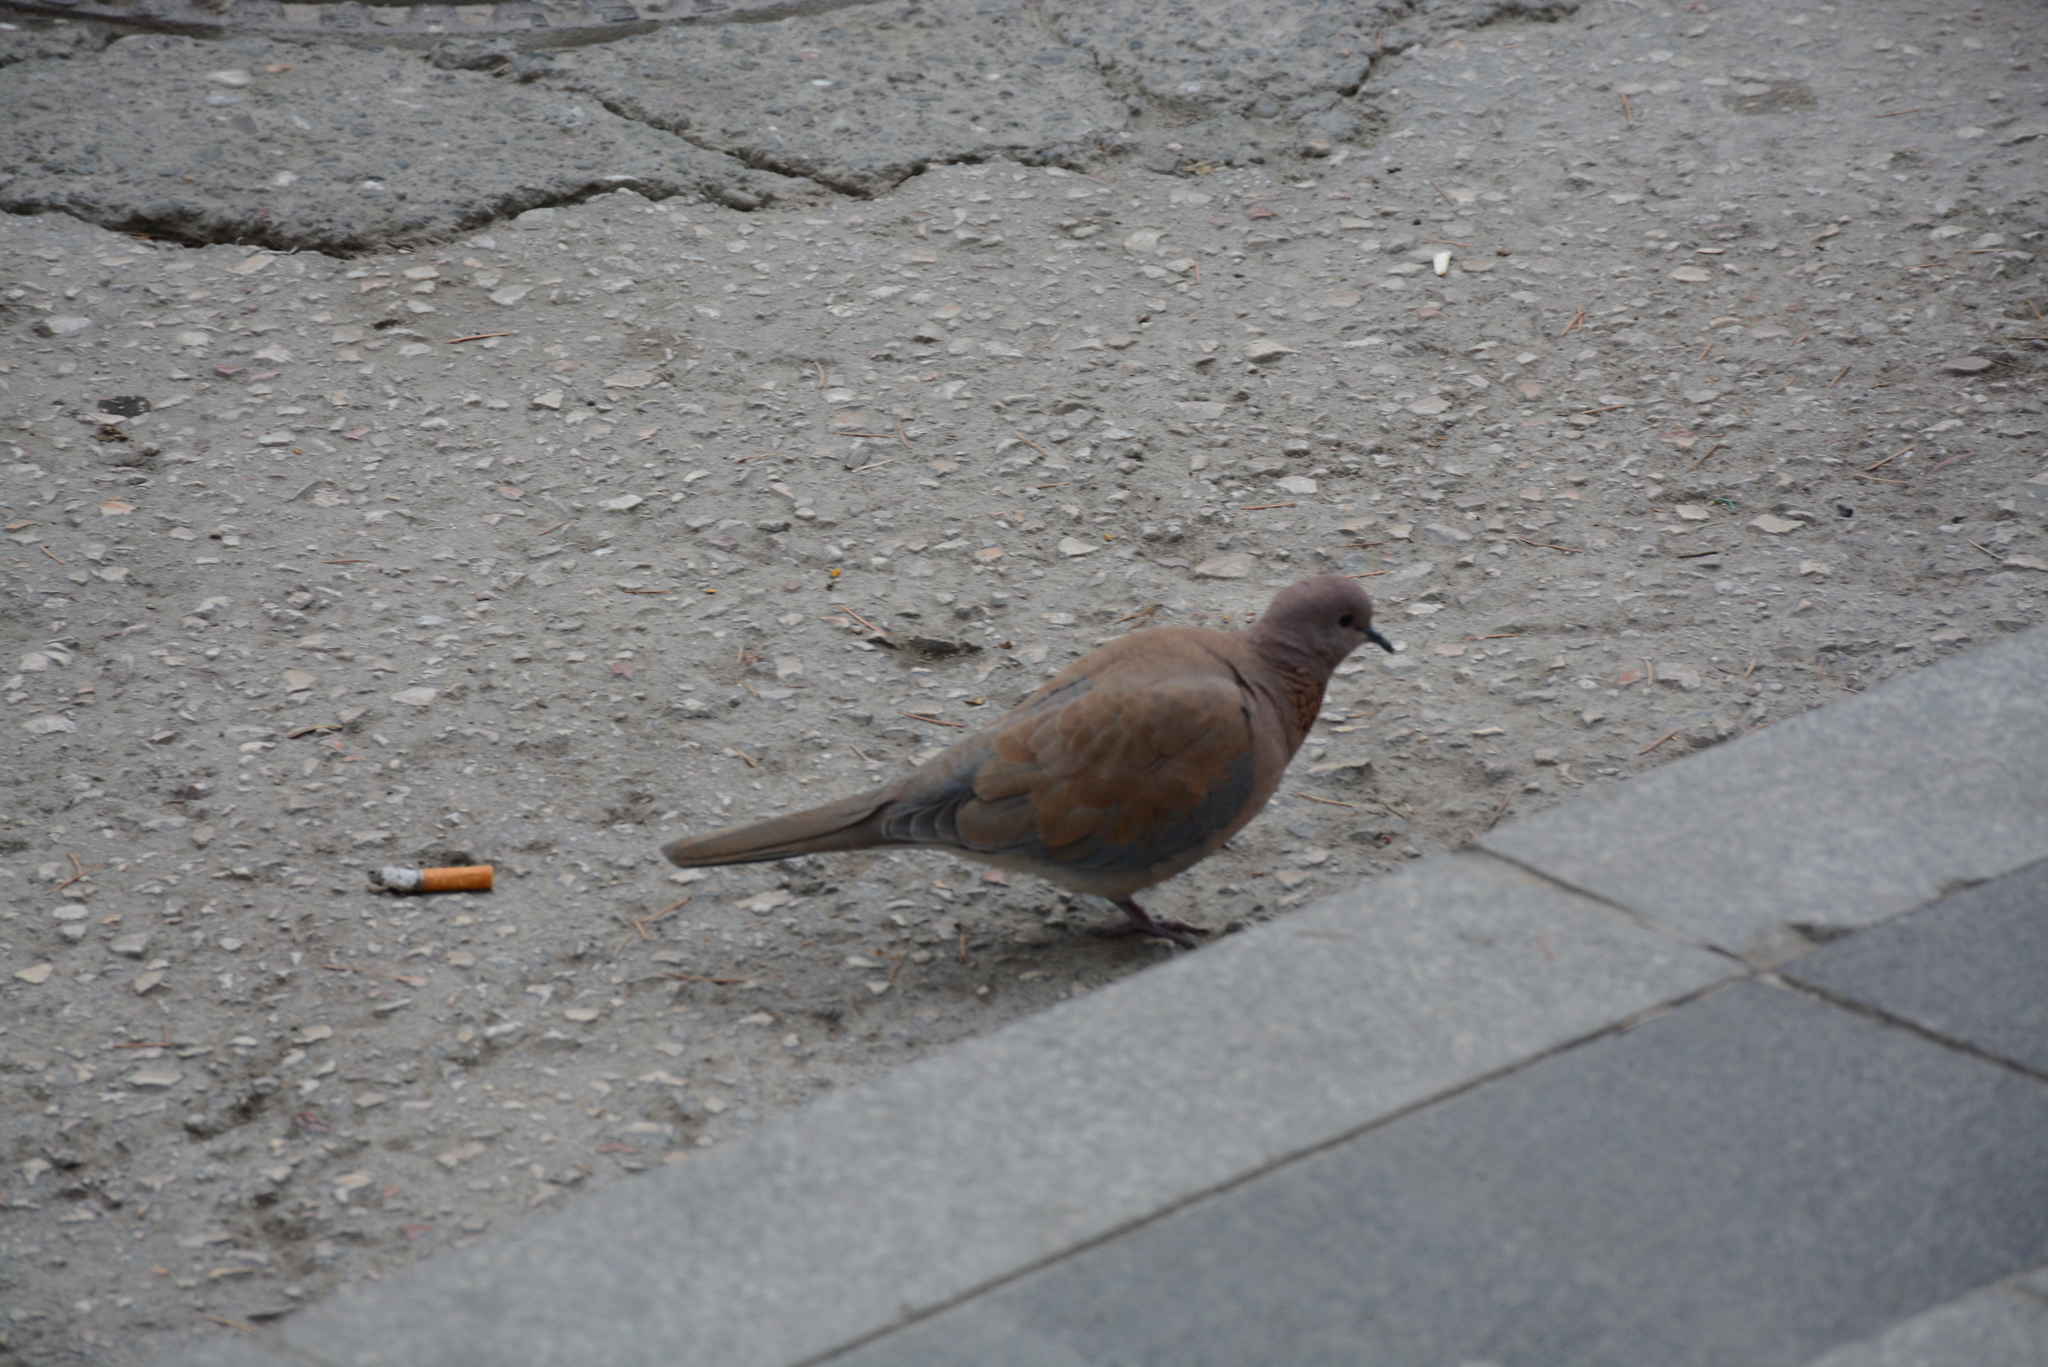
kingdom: Animalia
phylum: Chordata
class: Aves
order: Columbiformes
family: Columbidae
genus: Spilopelia
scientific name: Spilopelia senegalensis
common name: Laughing dove
